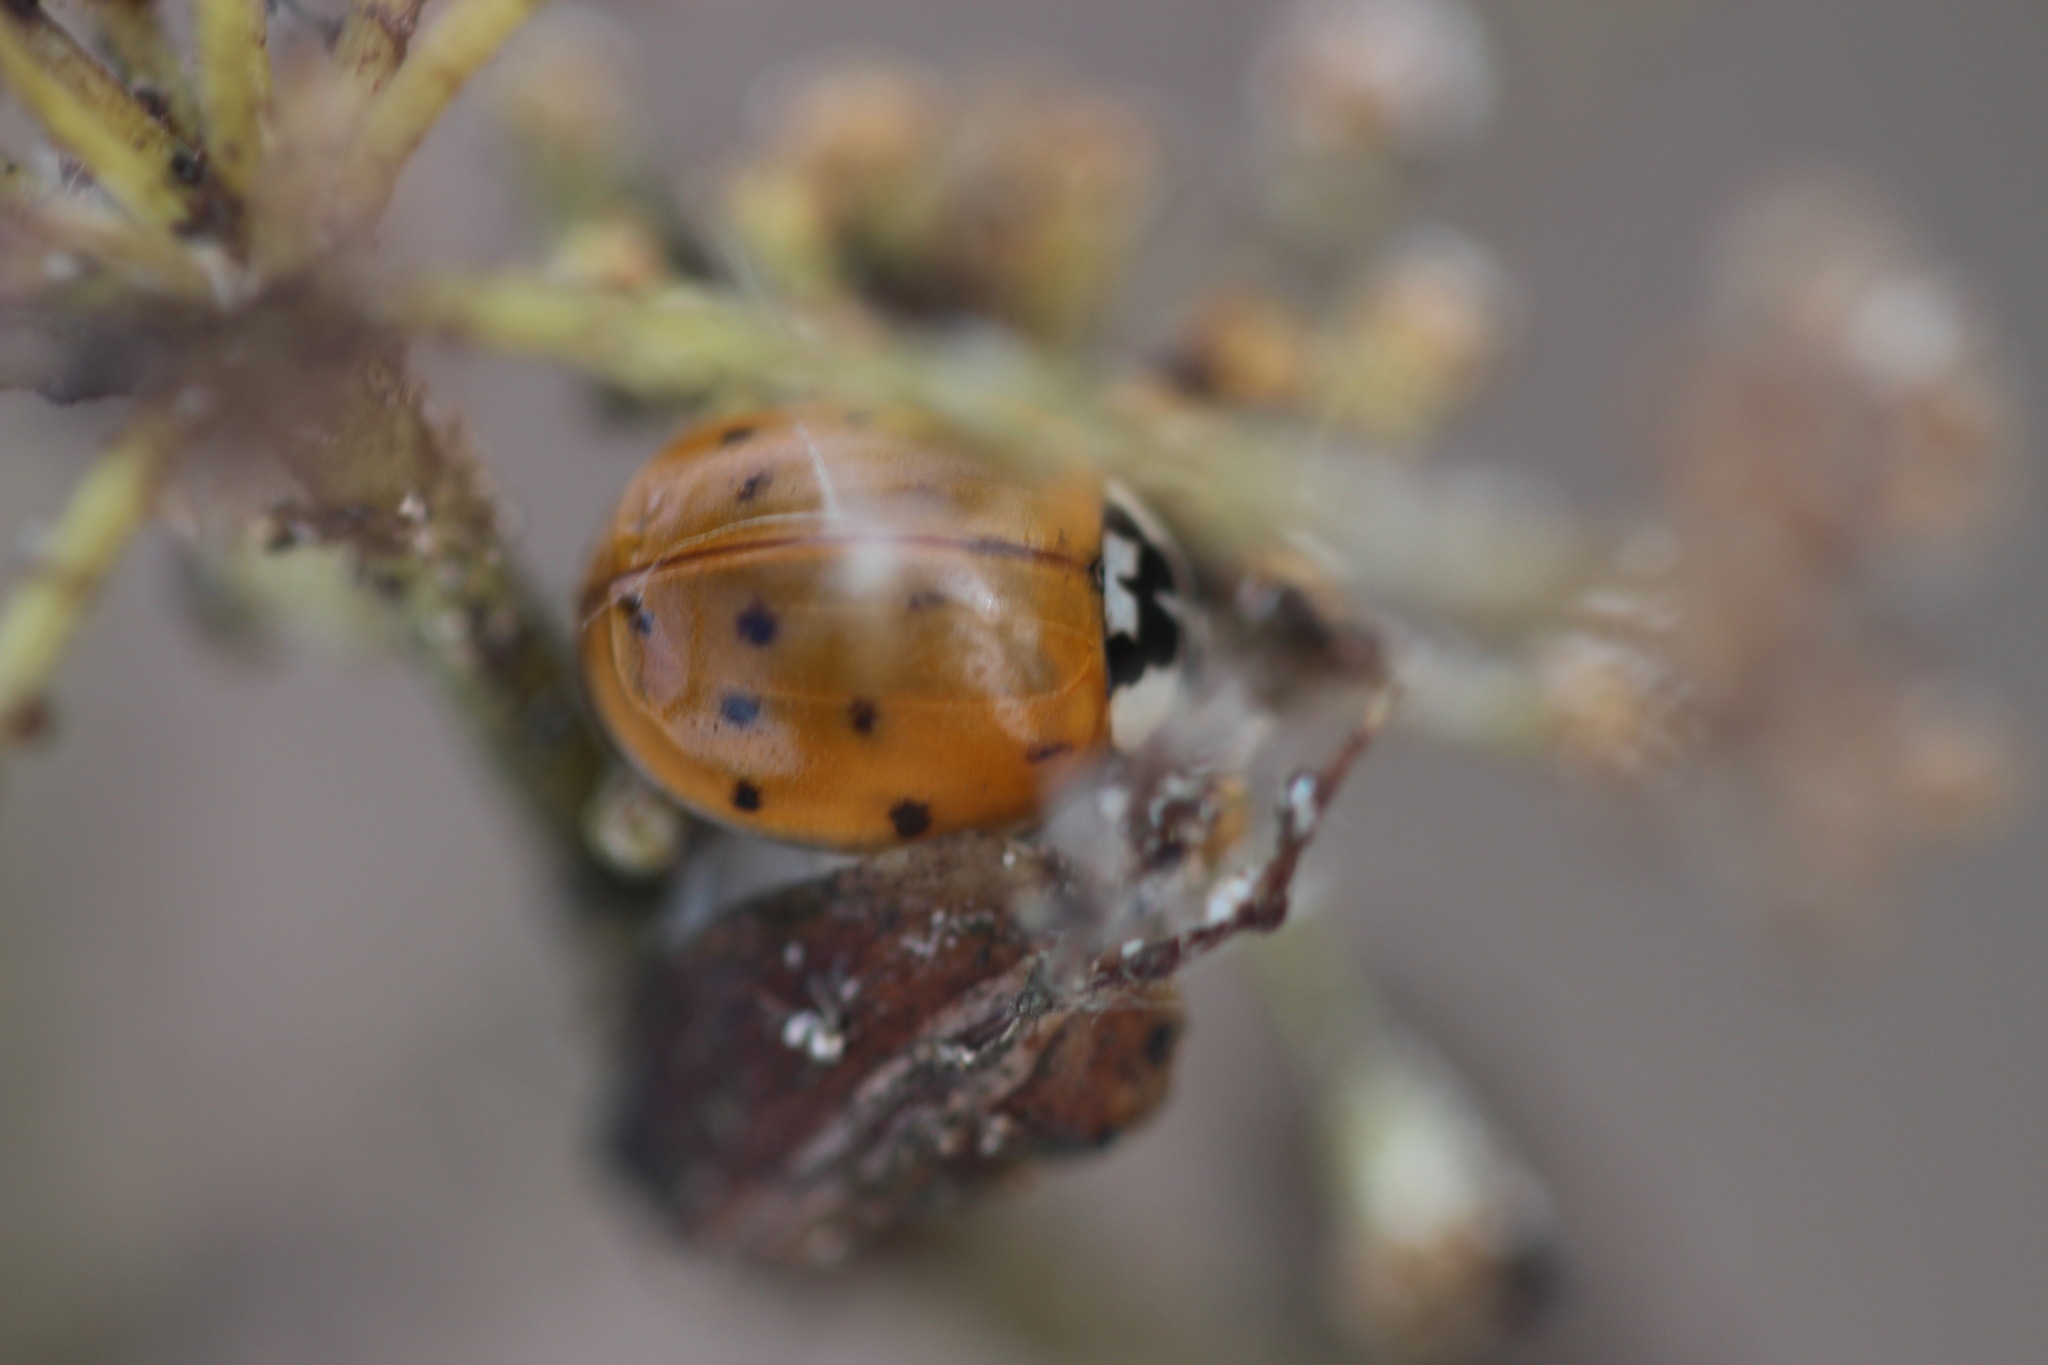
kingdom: Animalia
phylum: Arthropoda
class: Insecta
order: Coleoptera
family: Coccinellidae
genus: Harmonia
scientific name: Harmonia axyridis
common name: Harlequin ladybird
